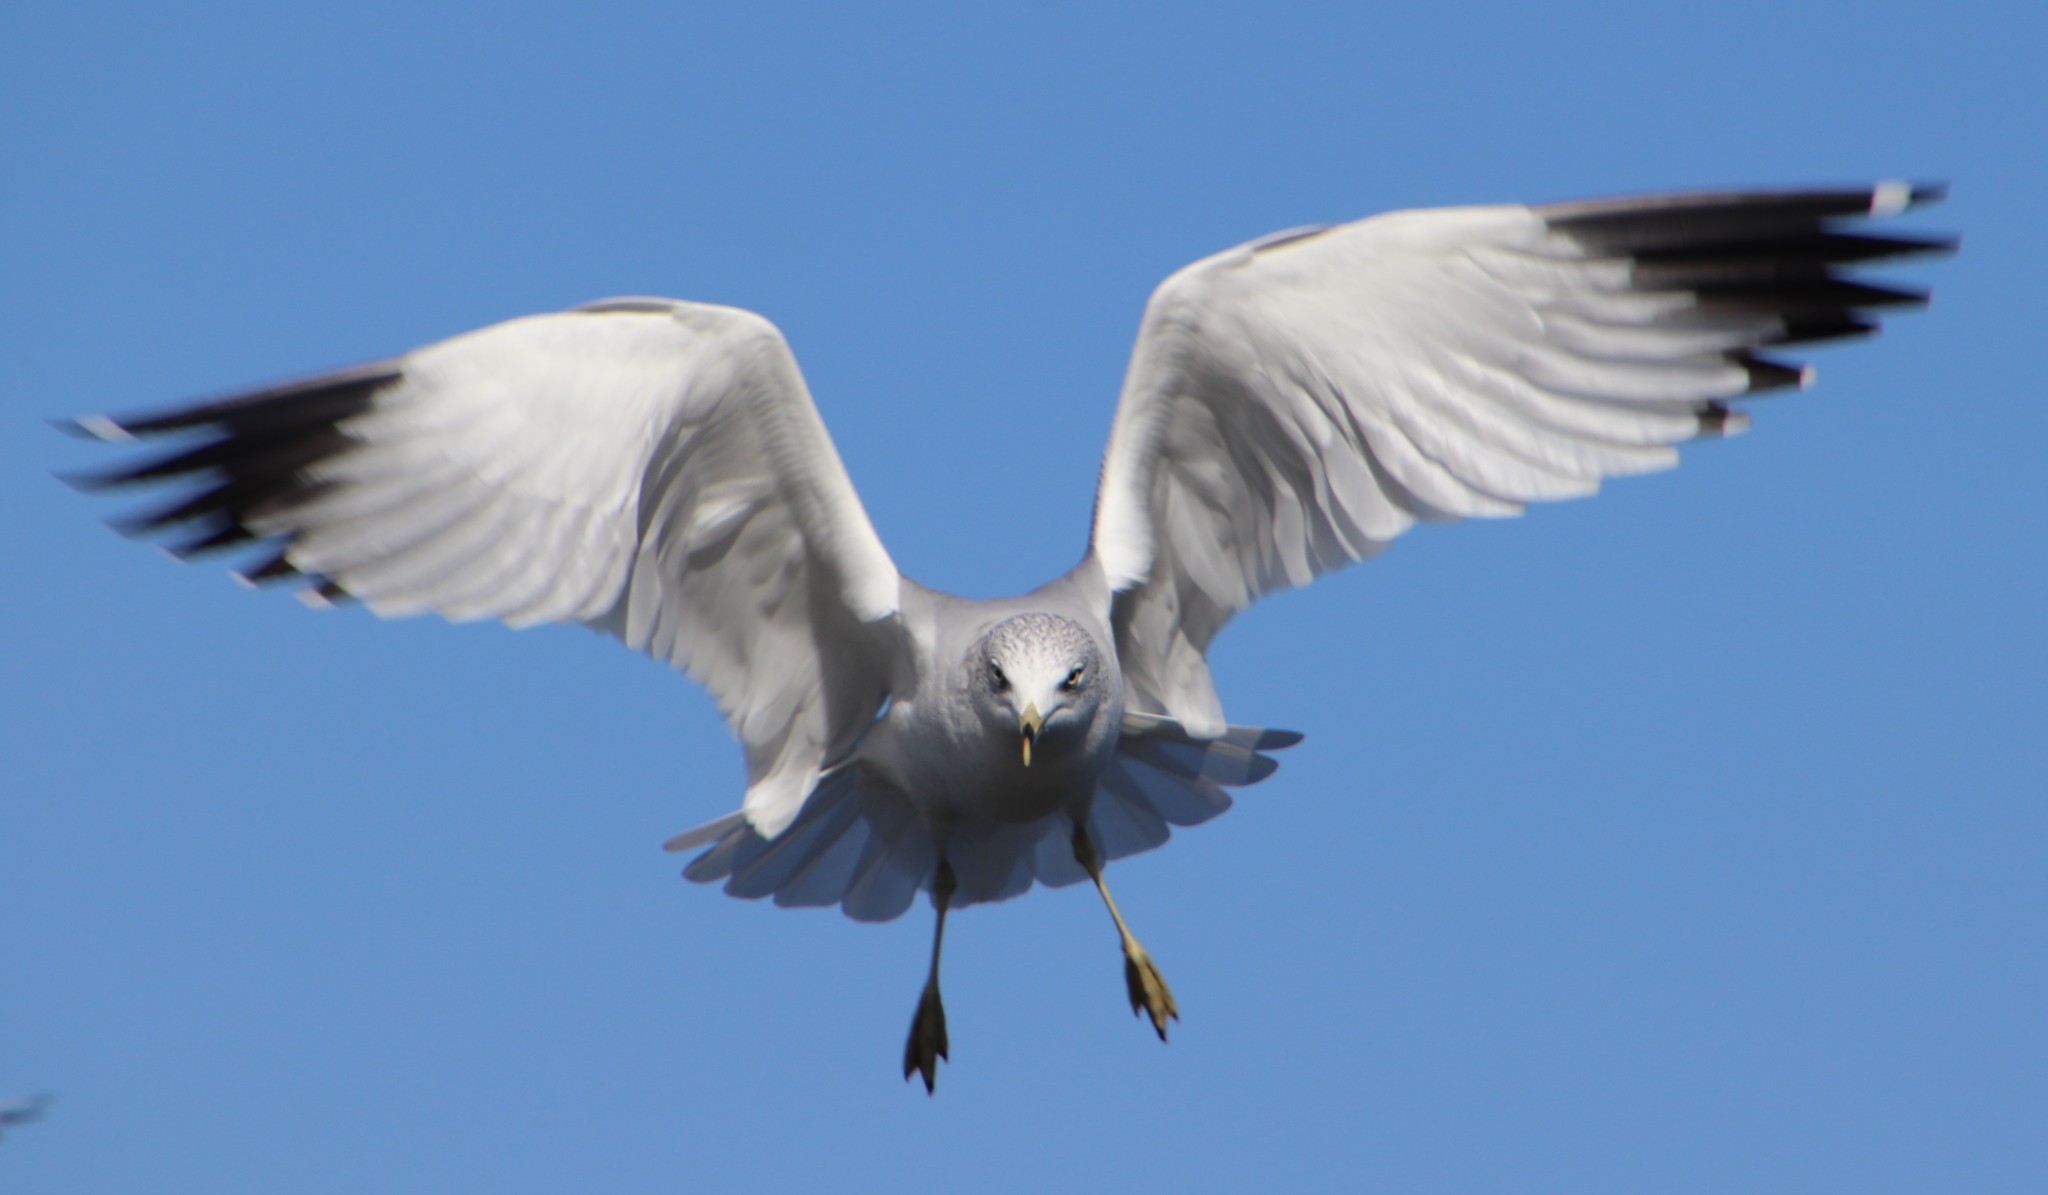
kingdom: Animalia
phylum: Chordata
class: Aves
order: Charadriiformes
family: Laridae
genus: Larus
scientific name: Larus delawarensis
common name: Ring-billed gull
